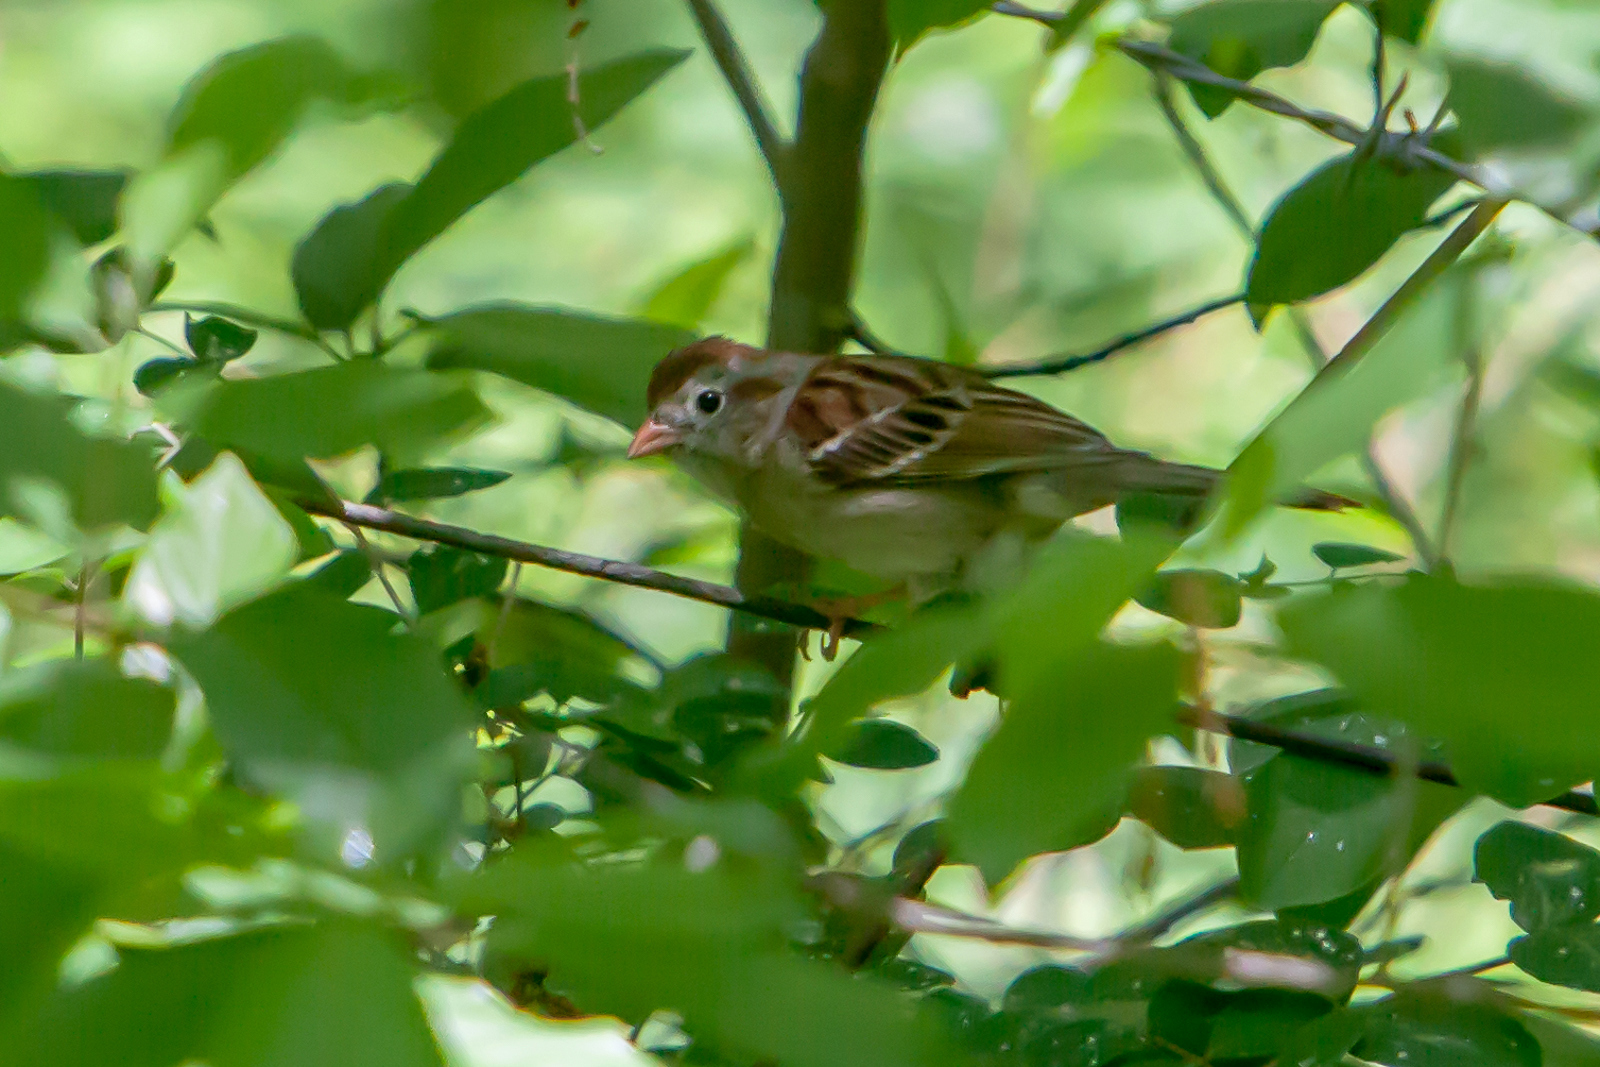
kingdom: Animalia
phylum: Chordata
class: Aves
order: Passeriformes
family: Passerellidae
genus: Spizella
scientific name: Spizella pusilla
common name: Field sparrow
